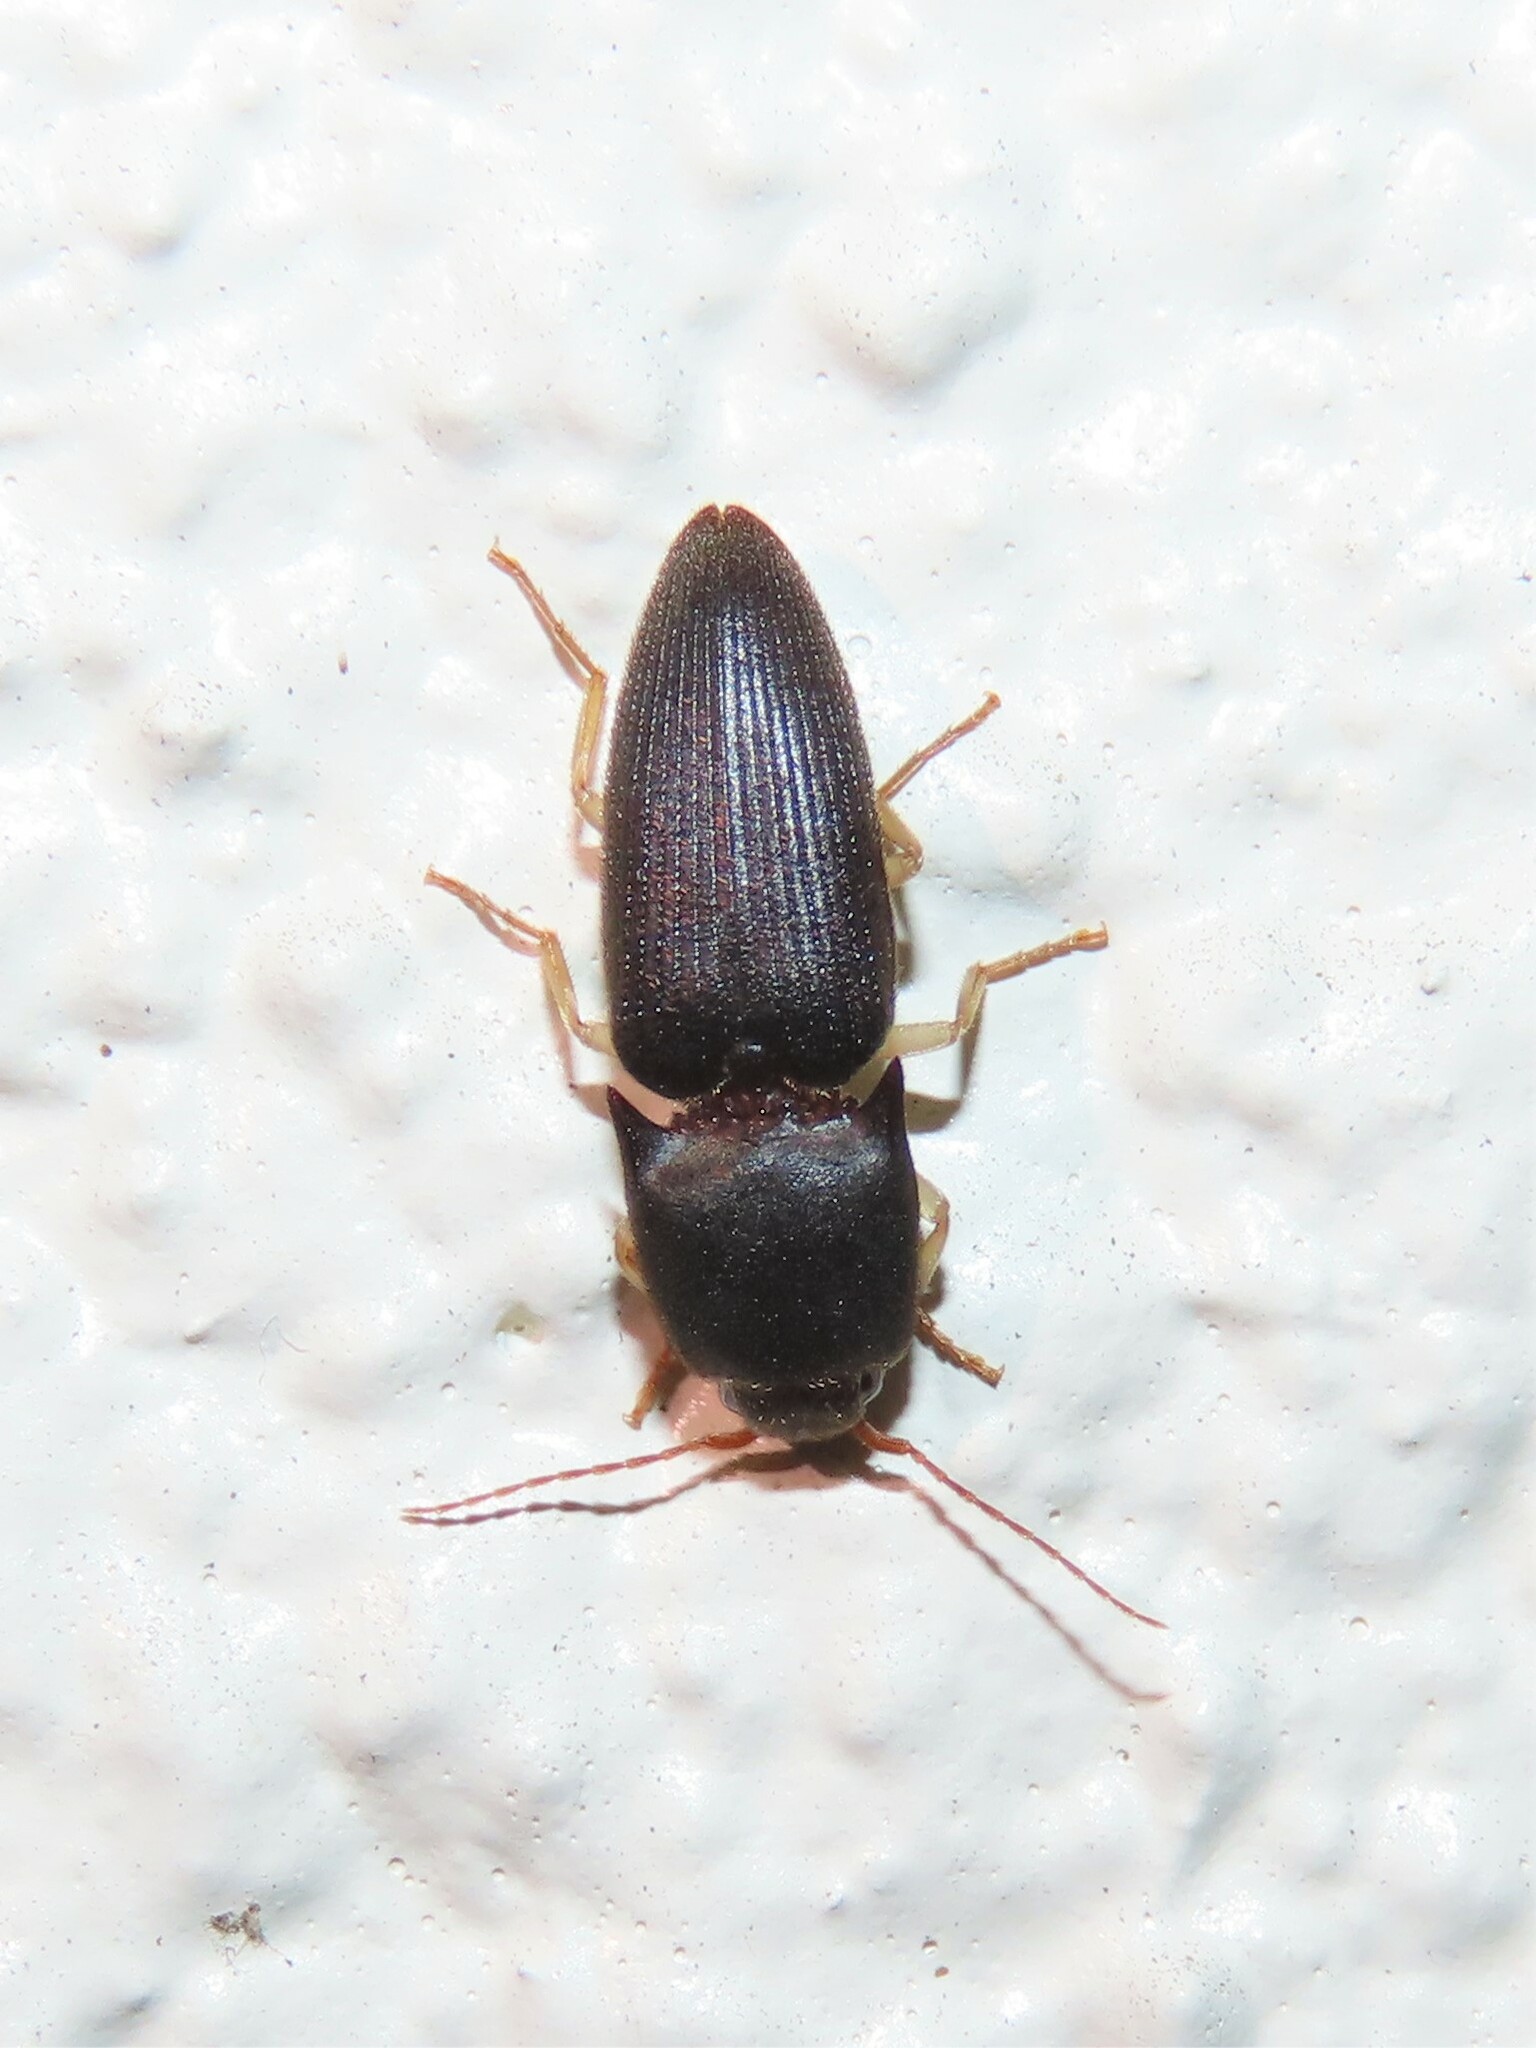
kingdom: Animalia
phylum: Arthropoda
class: Insecta
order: Coleoptera
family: Elateridae
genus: Heteroderes
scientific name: Heteroderes amplicollis
